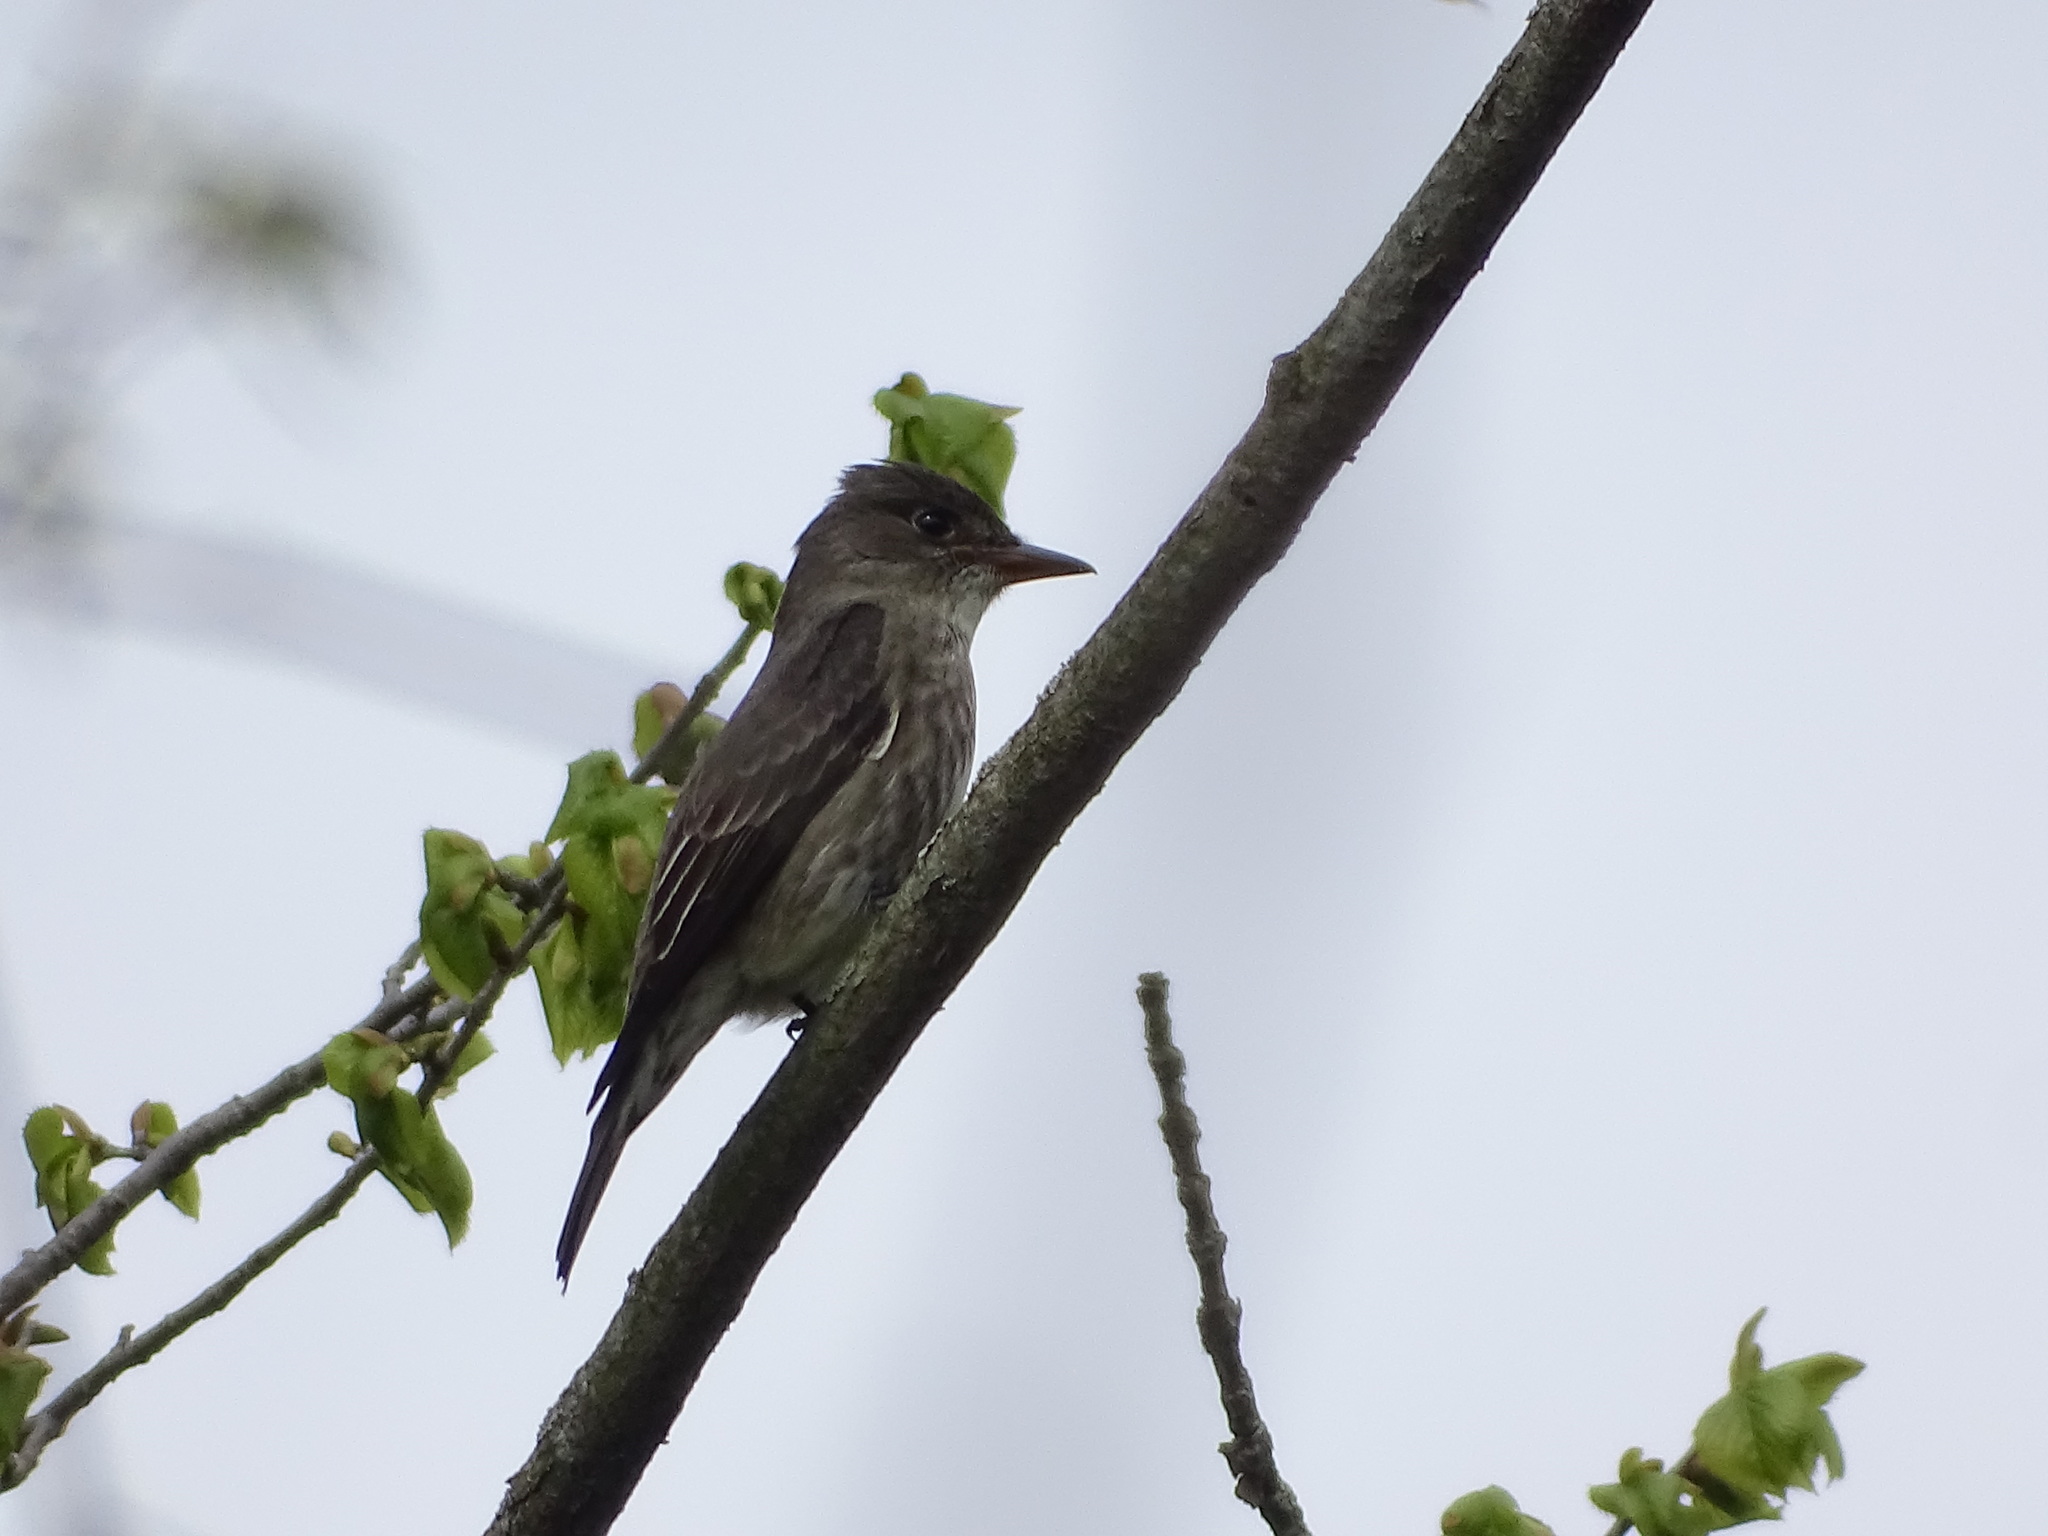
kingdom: Animalia
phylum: Chordata
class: Aves
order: Passeriformes
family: Tyrannidae
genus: Contopus
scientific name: Contopus cooperi
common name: Olive-sided flycatcher
